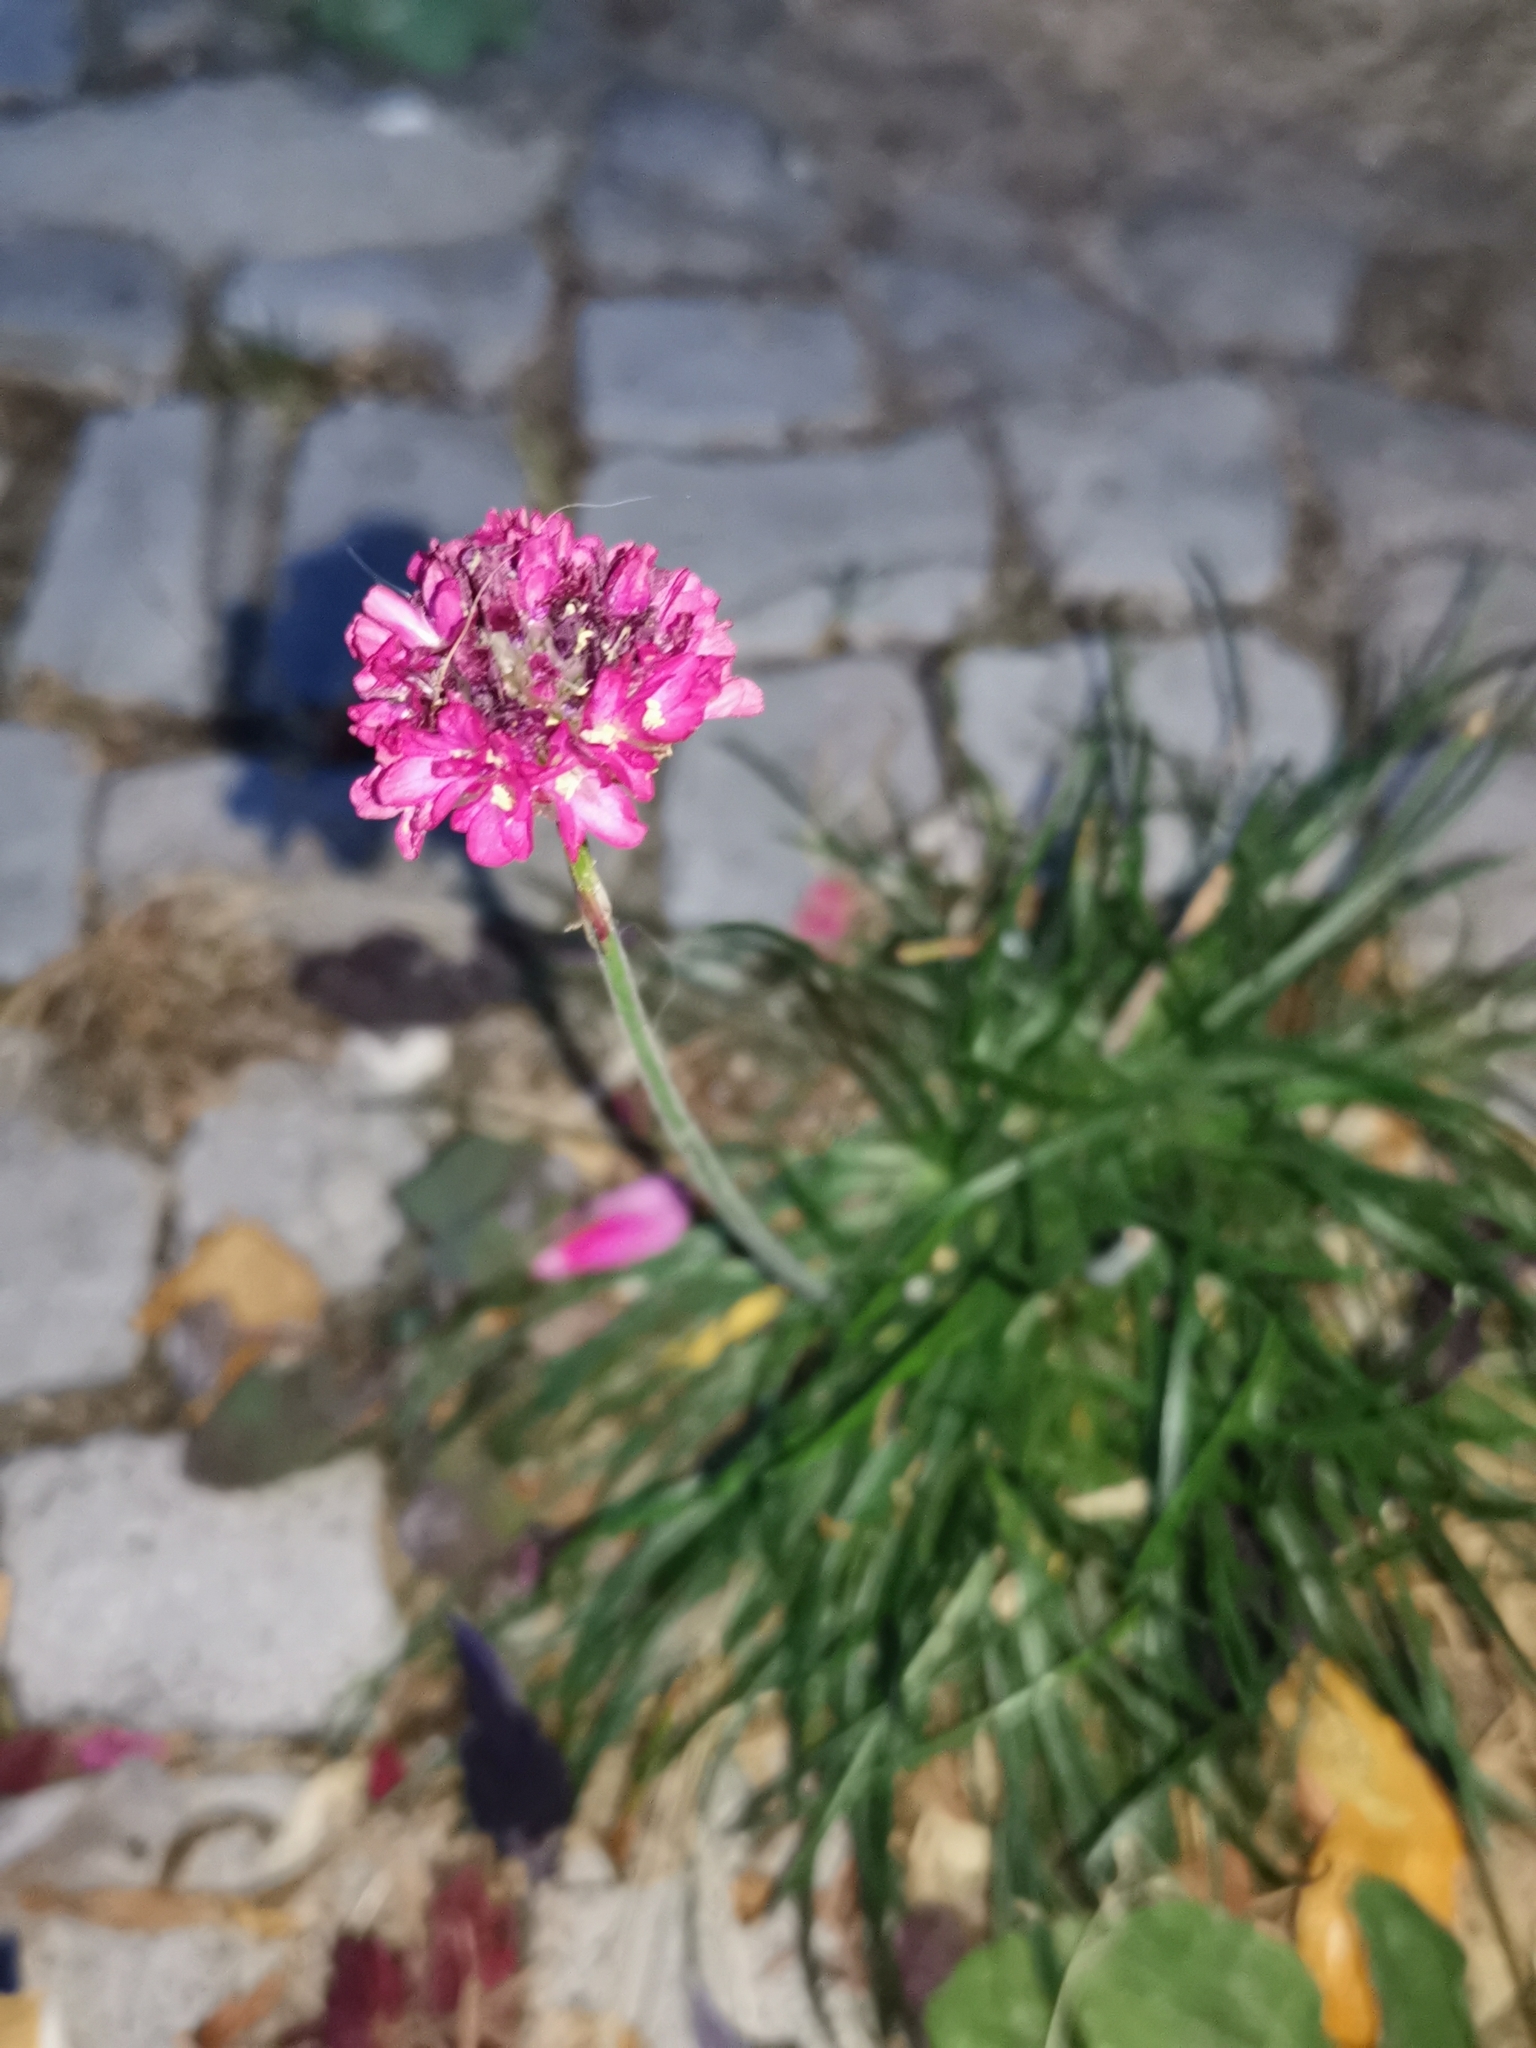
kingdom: Plantae
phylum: Tracheophyta
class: Magnoliopsida
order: Caryophyllales
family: Plumbaginaceae
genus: Armeria
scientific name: Armeria maritima
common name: Thrift
